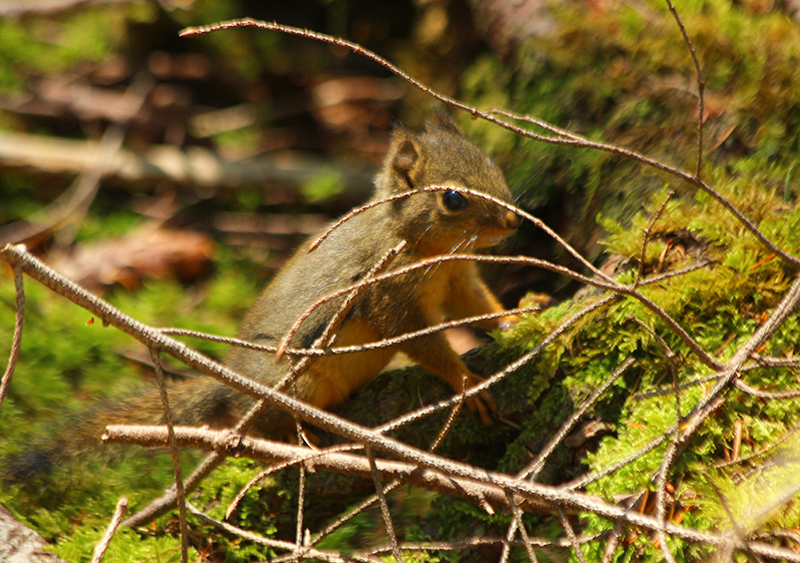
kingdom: Animalia
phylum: Chordata
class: Mammalia
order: Rodentia
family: Sciuridae
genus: Tamiasciurus
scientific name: Tamiasciurus douglasii
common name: Douglas's squirrel
